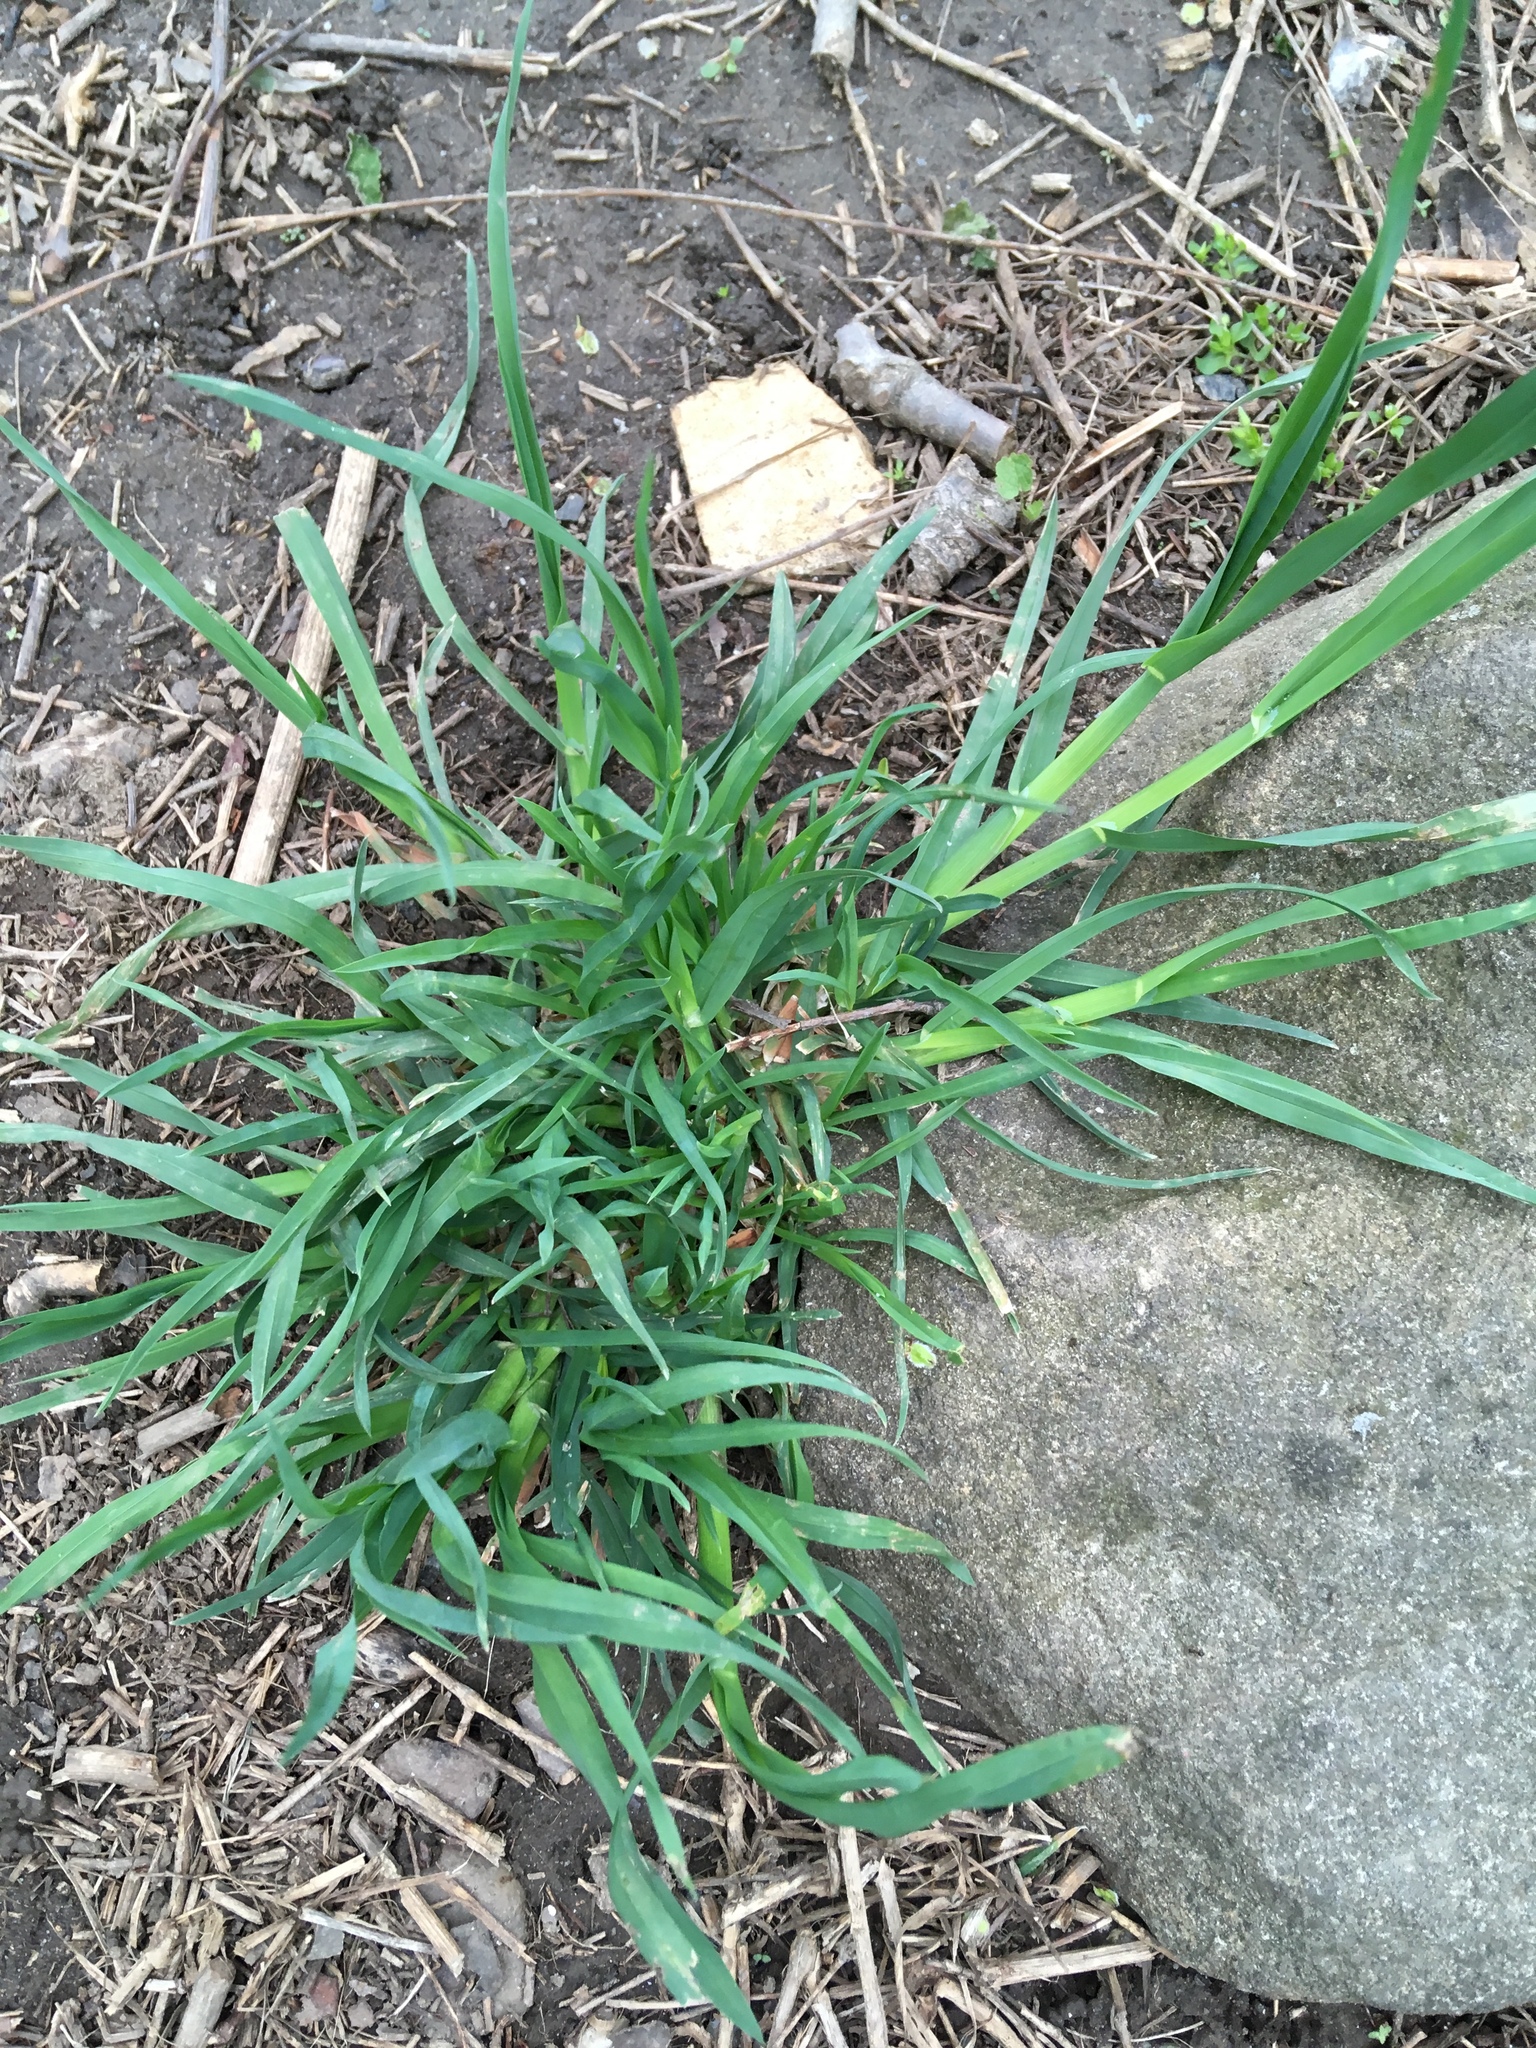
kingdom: Plantae
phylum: Tracheophyta
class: Liliopsida
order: Poales
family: Poaceae
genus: Dactylis
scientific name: Dactylis glomerata
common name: Orchardgrass
